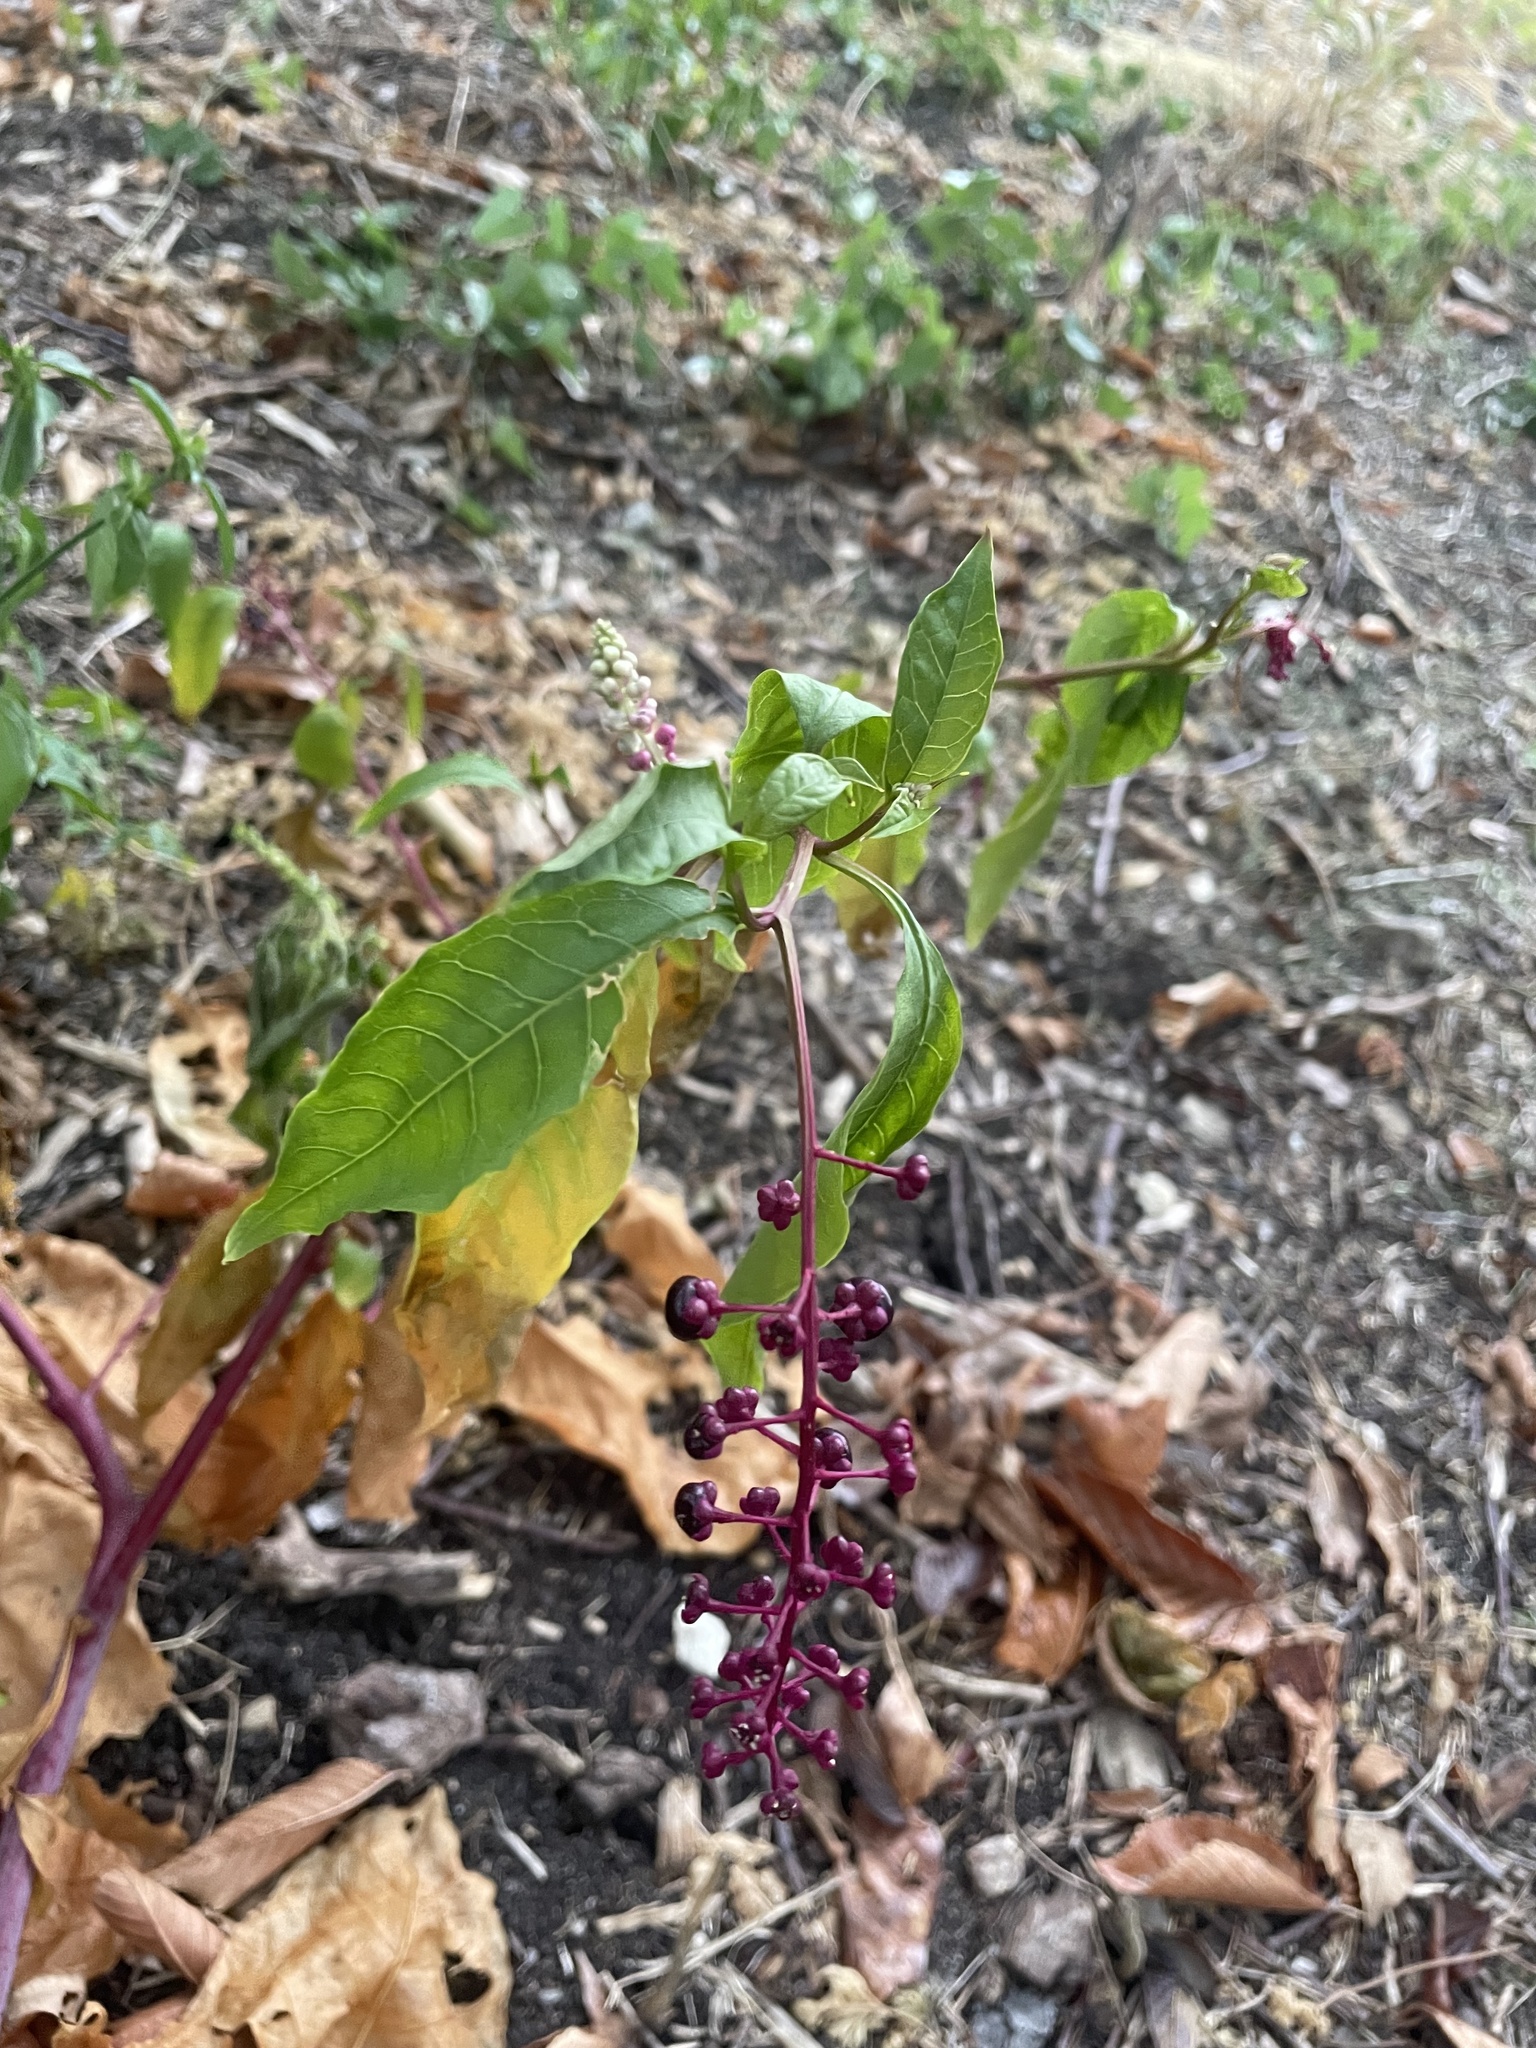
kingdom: Plantae
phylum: Tracheophyta
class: Magnoliopsida
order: Caryophyllales
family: Phytolaccaceae
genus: Phytolacca
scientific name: Phytolacca americana
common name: American pokeweed
